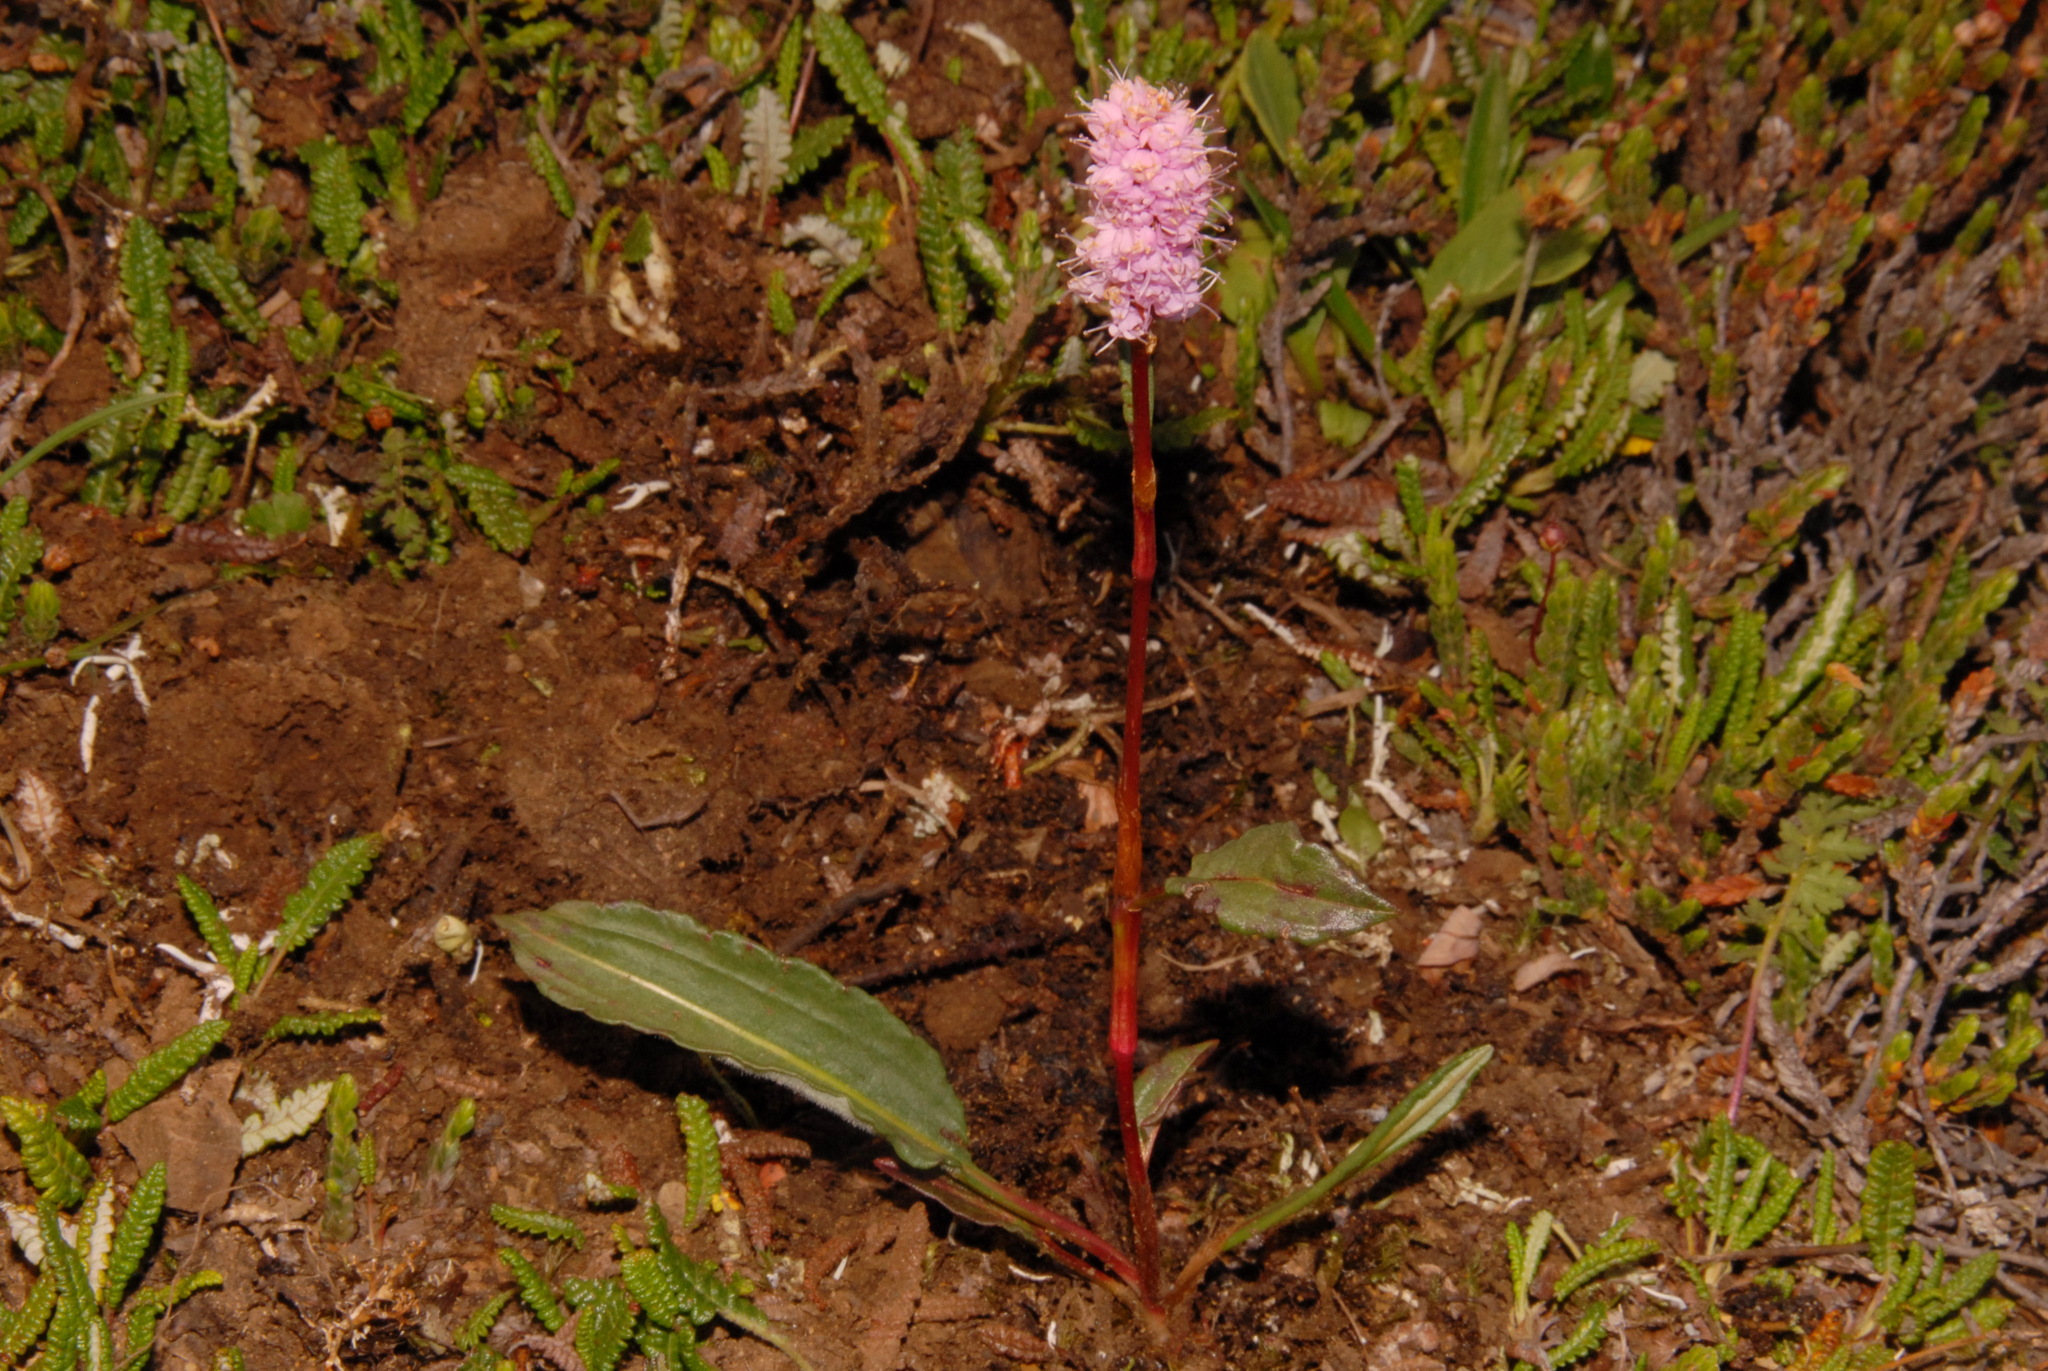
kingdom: Plantae
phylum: Tracheophyta
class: Magnoliopsida
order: Caryophyllales
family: Polygonaceae
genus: Bistorta
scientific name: Bistorta plumosa
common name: Meadow bistort
